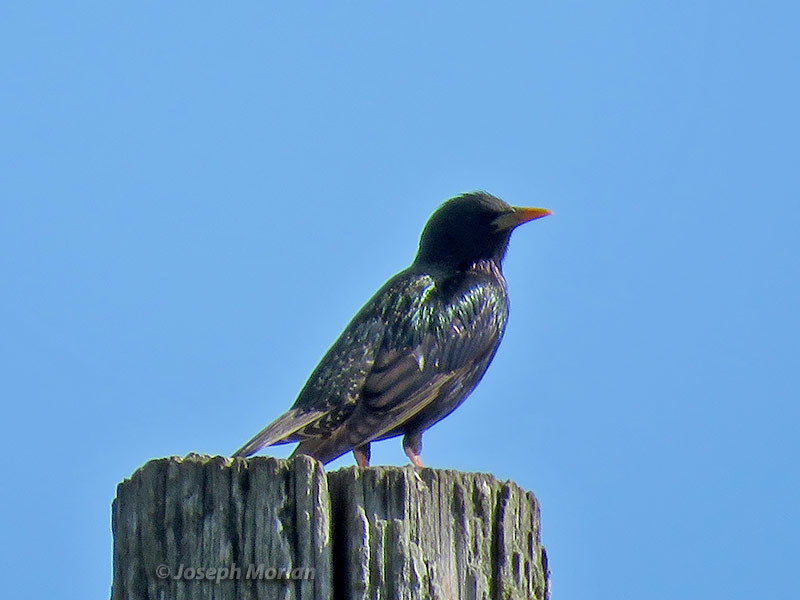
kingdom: Animalia
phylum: Chordata
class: Aves
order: Passeriformes
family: Sturnidae
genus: Sturnus
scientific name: Sturnus vulgaris
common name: Common starling
